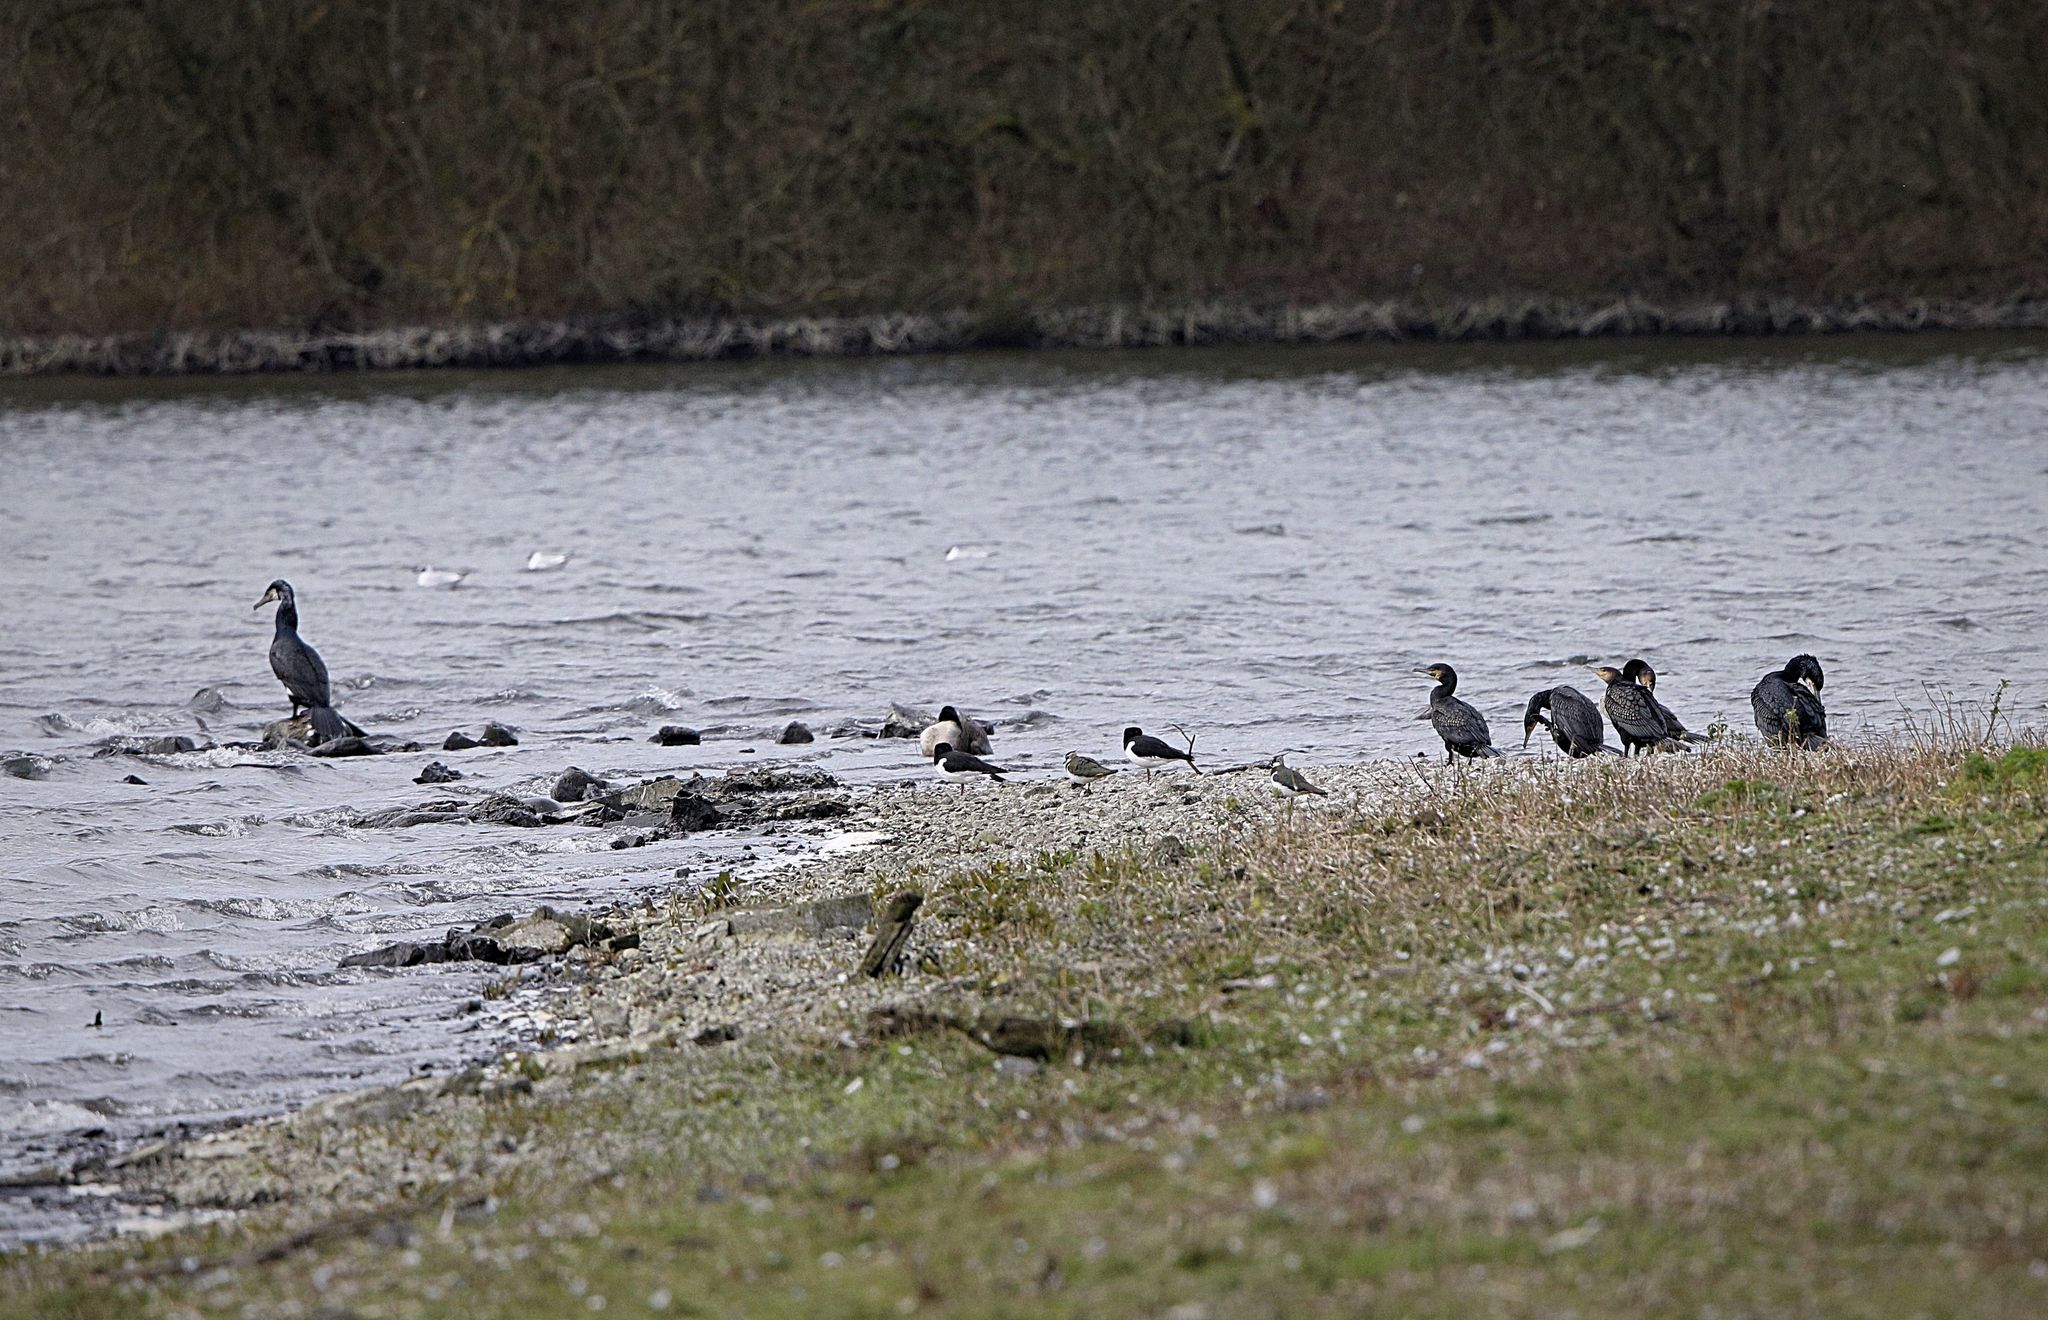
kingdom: Animalia
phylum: Chordata
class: Aves
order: Suliformes
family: Phalacrocoracidae
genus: Phalacrocorax
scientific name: Phalacrocorax carbo
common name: Great cormorant
